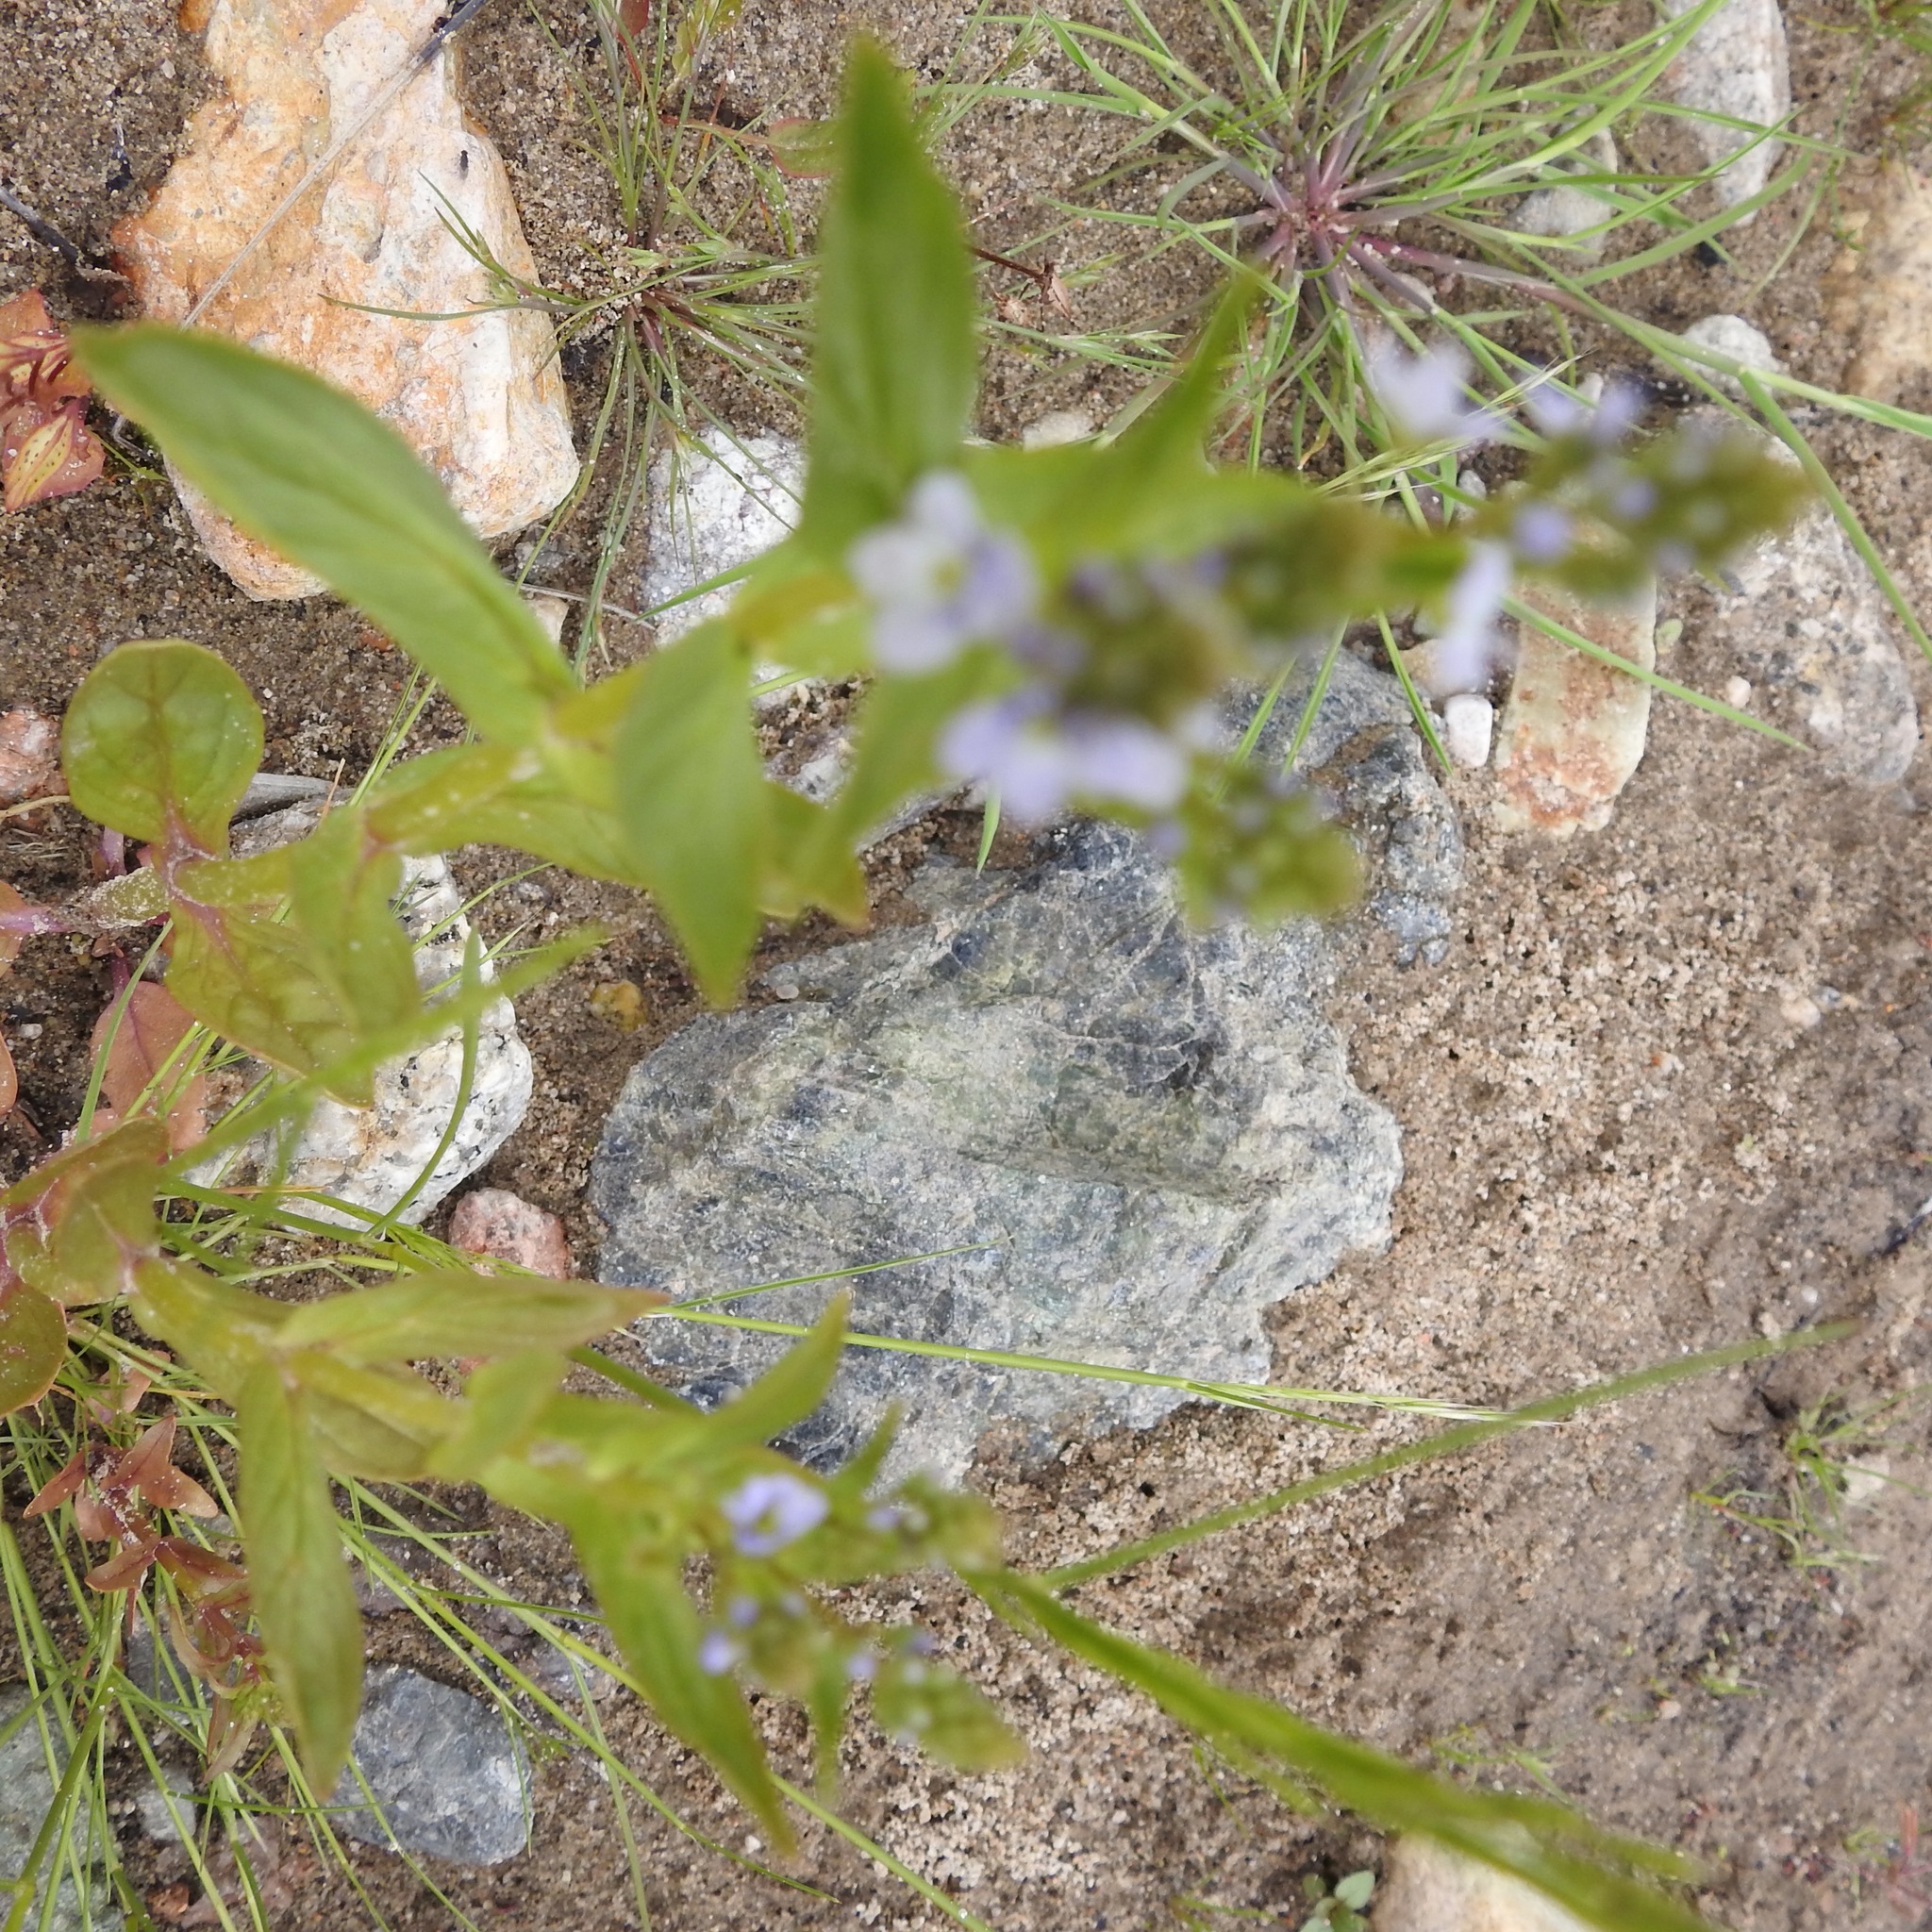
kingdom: Plantae
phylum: Tracheophyta
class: Magnoliopsida
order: Lamiales
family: Plantaginaceae
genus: Veronica
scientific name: Veronica anagallis-aquatica
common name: Water speedwell
